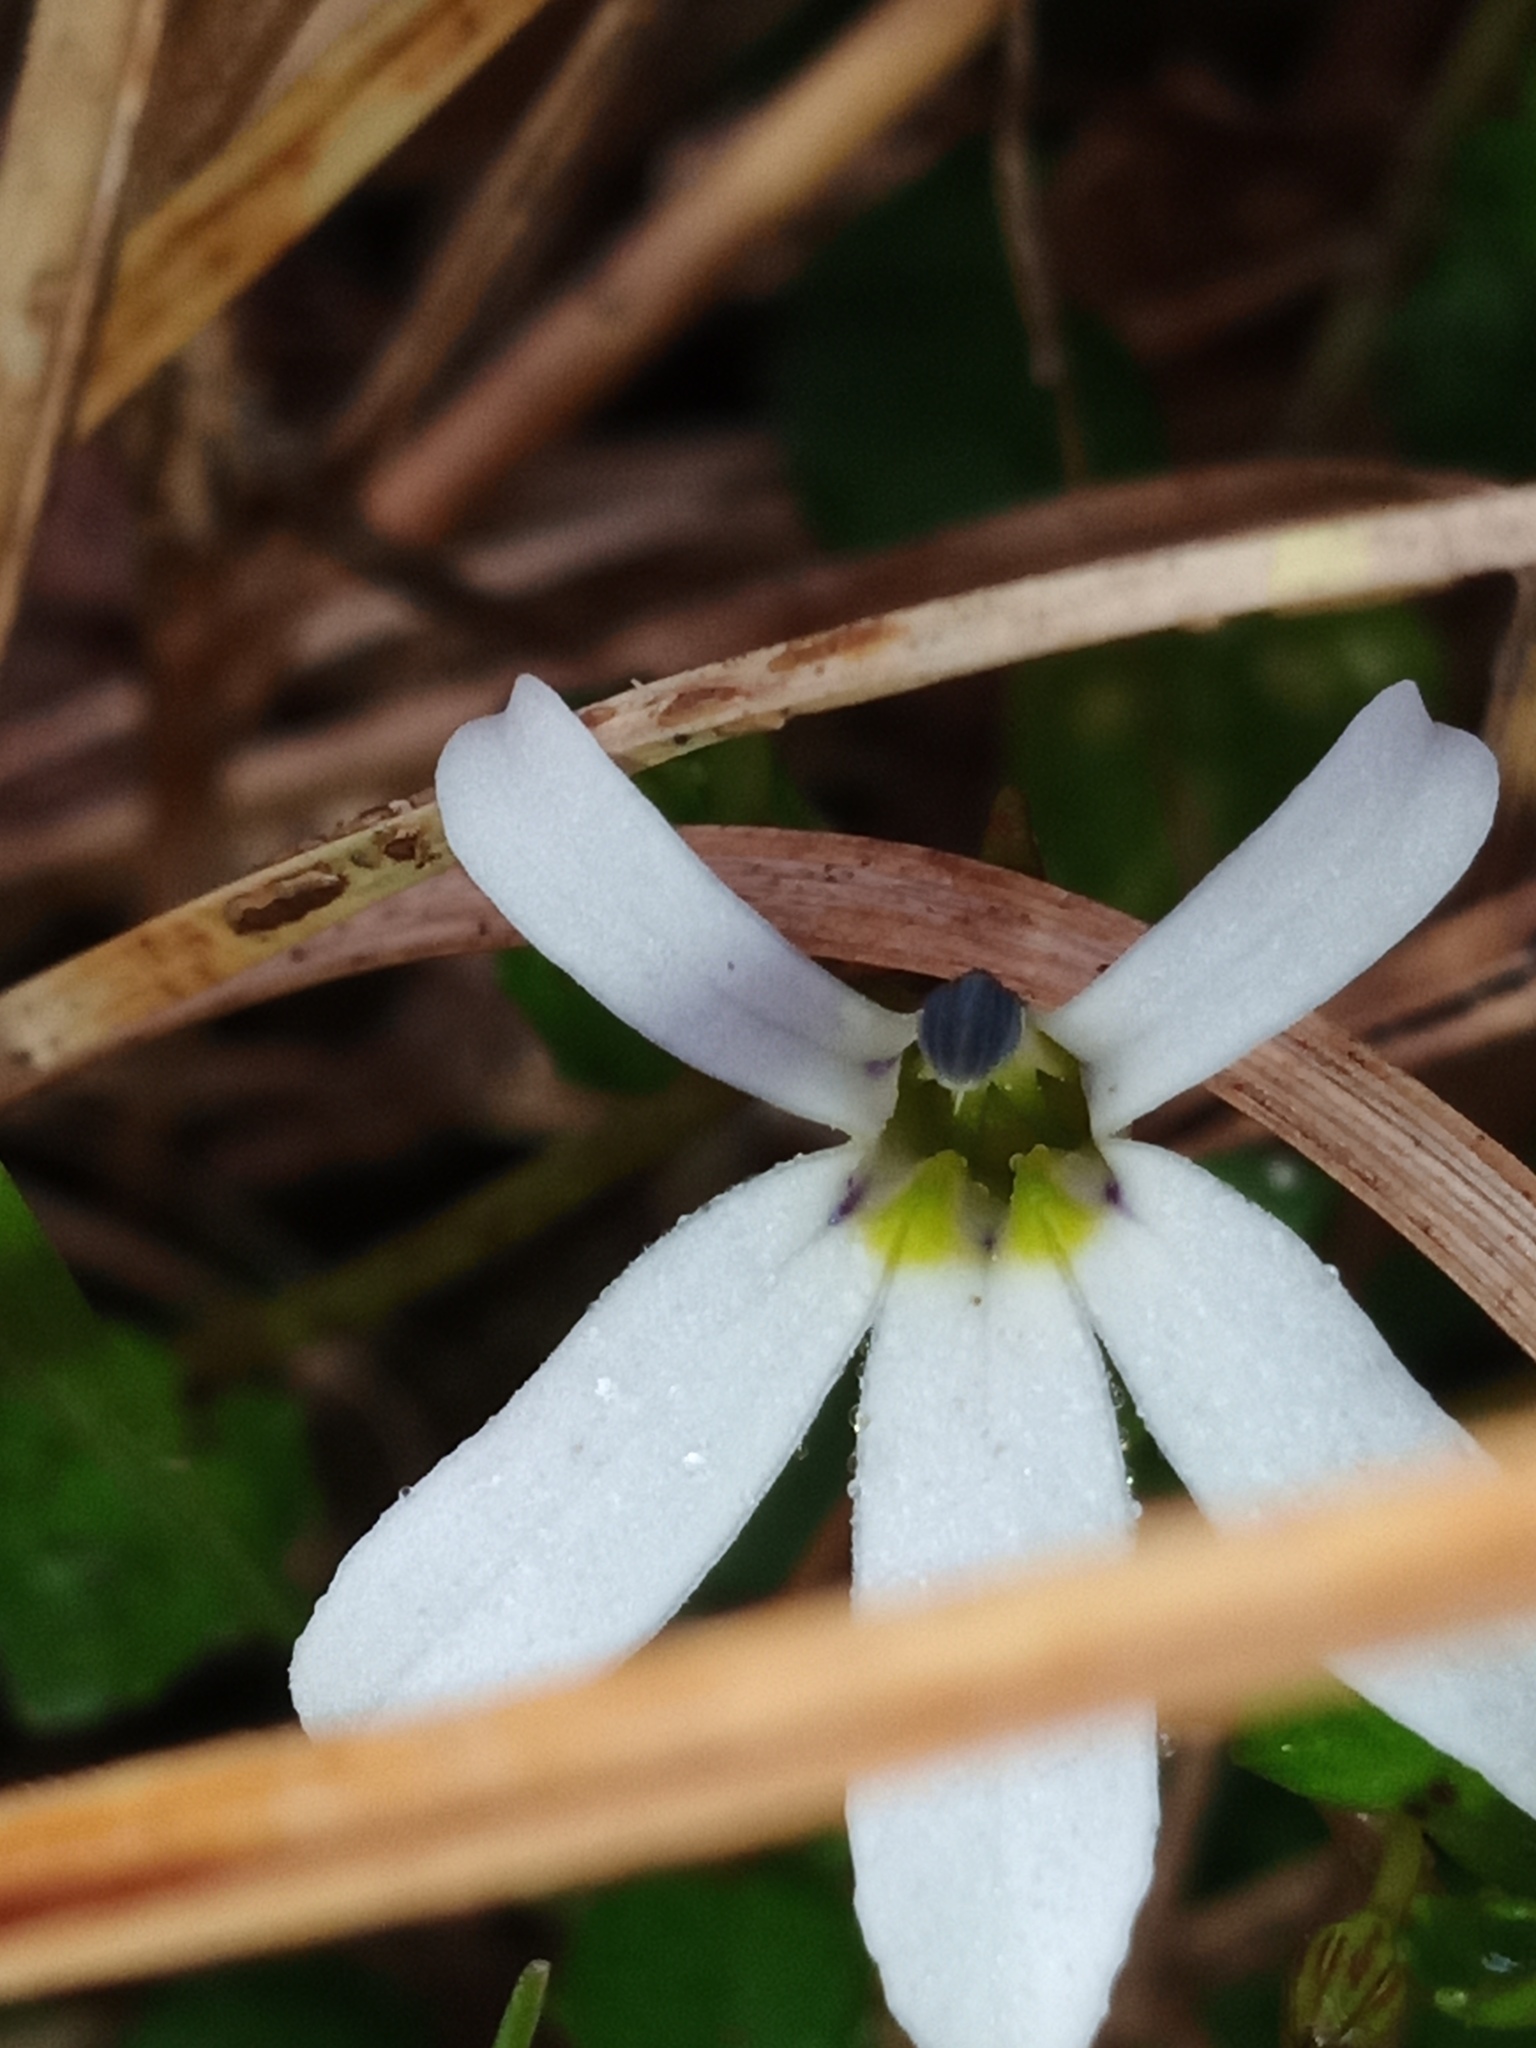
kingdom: Plantae
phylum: Tracheophyta
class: Magnoliopsida
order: Asterales
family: Campanulaceae
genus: Lobelia
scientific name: Lobelia angulata
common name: Lawn lobelia
